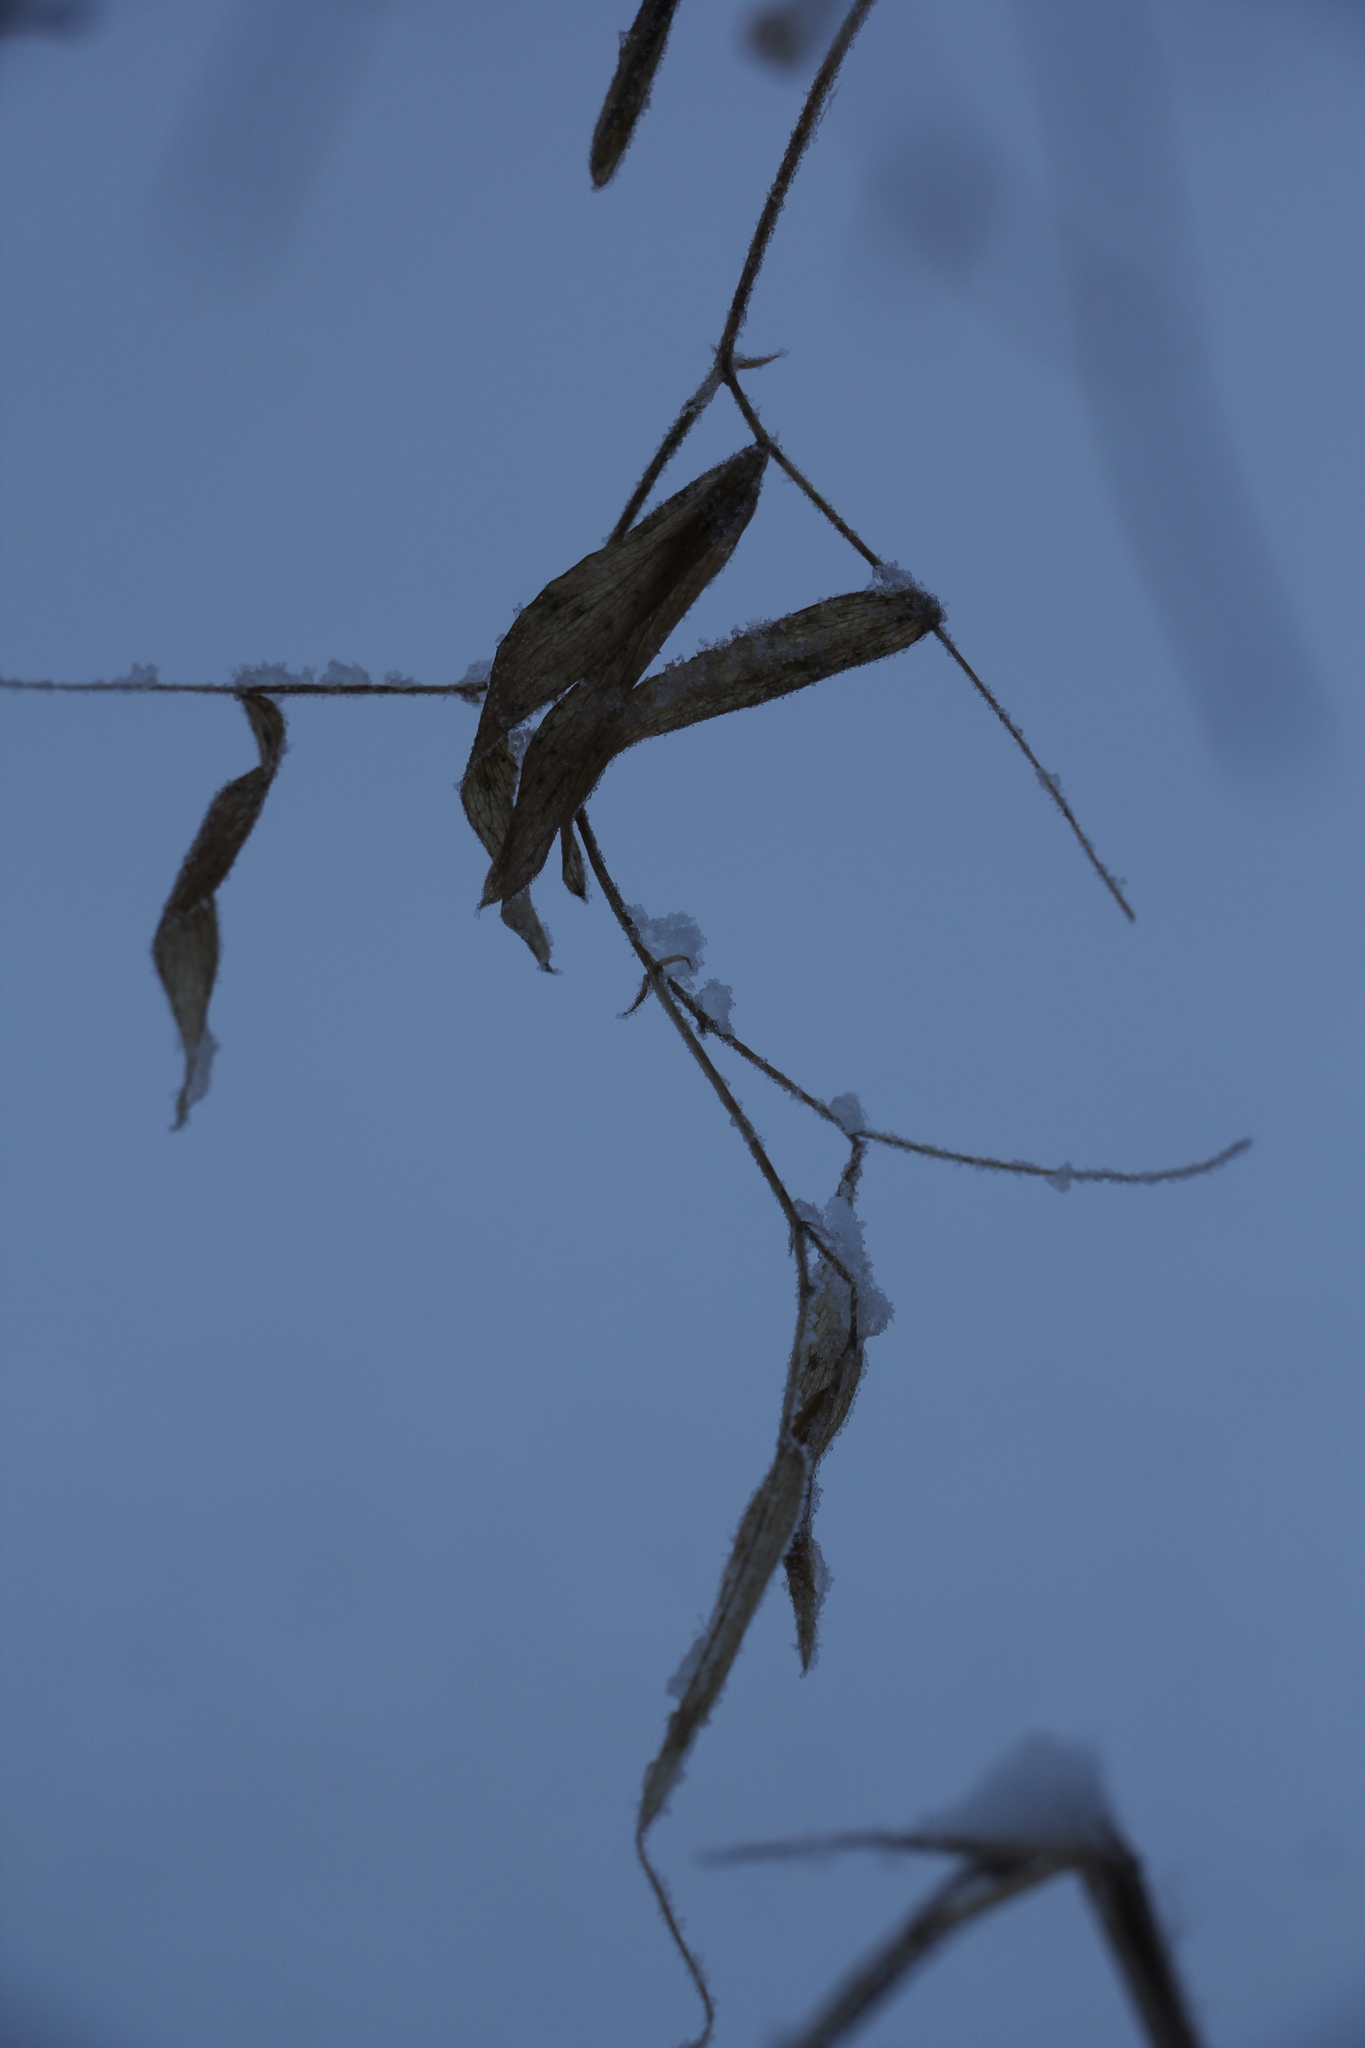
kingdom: Plantae
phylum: Tracheophyta
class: Magnoliopsida
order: Fabales
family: Fabaceae
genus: Lathyrus
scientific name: Lathyrus pratensis
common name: Meadow vetchling
